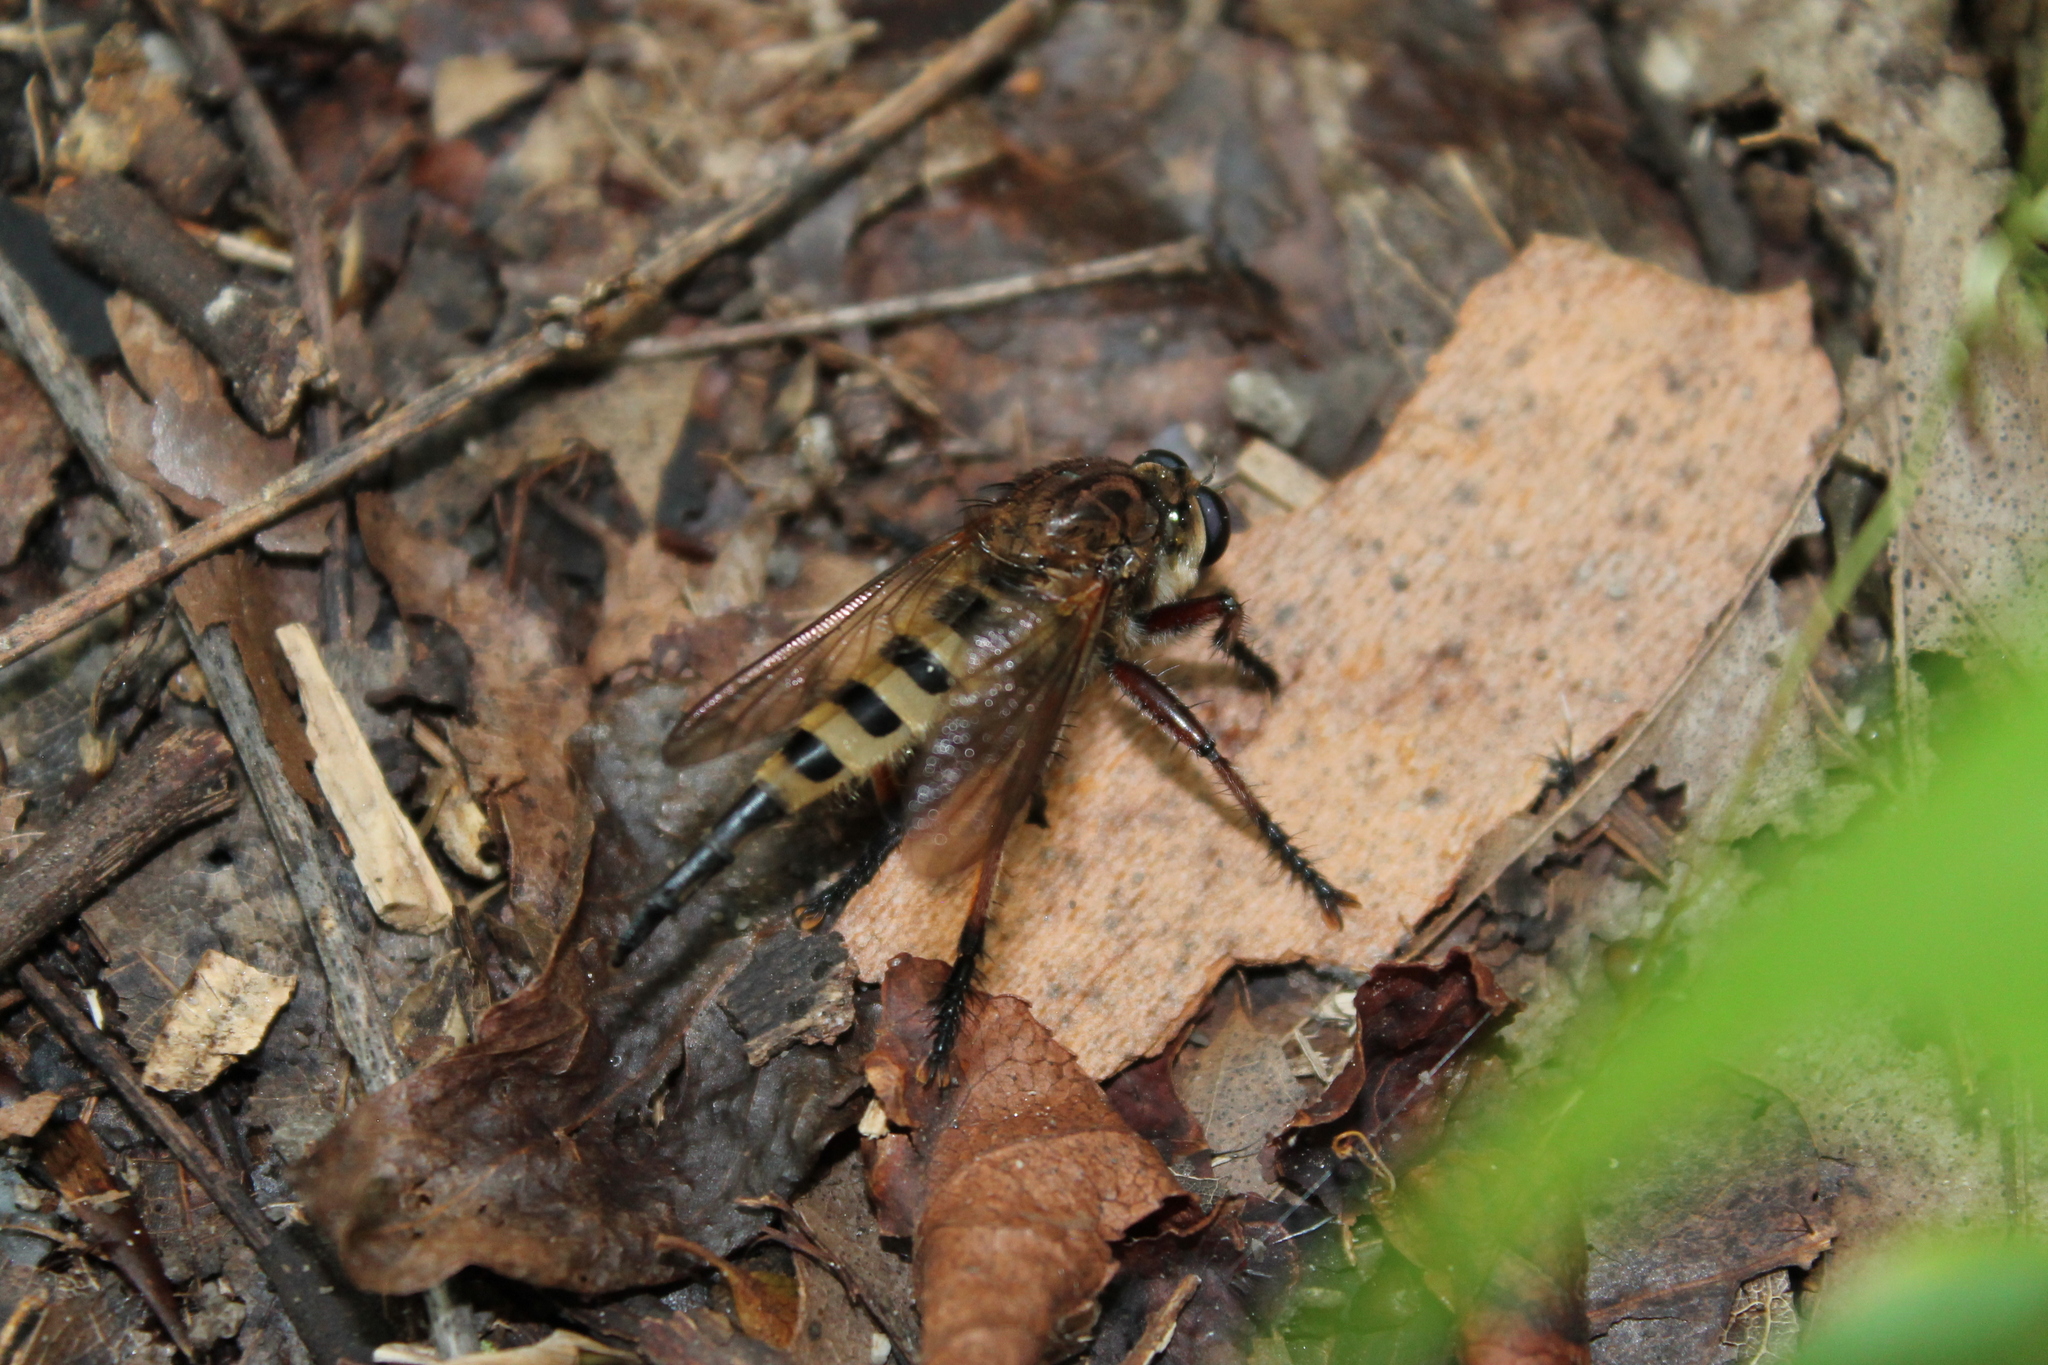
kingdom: Animalia
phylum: Arthropoda
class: Insecta
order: Diptera
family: Asilidae
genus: Promachus
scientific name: Promachus hinei
